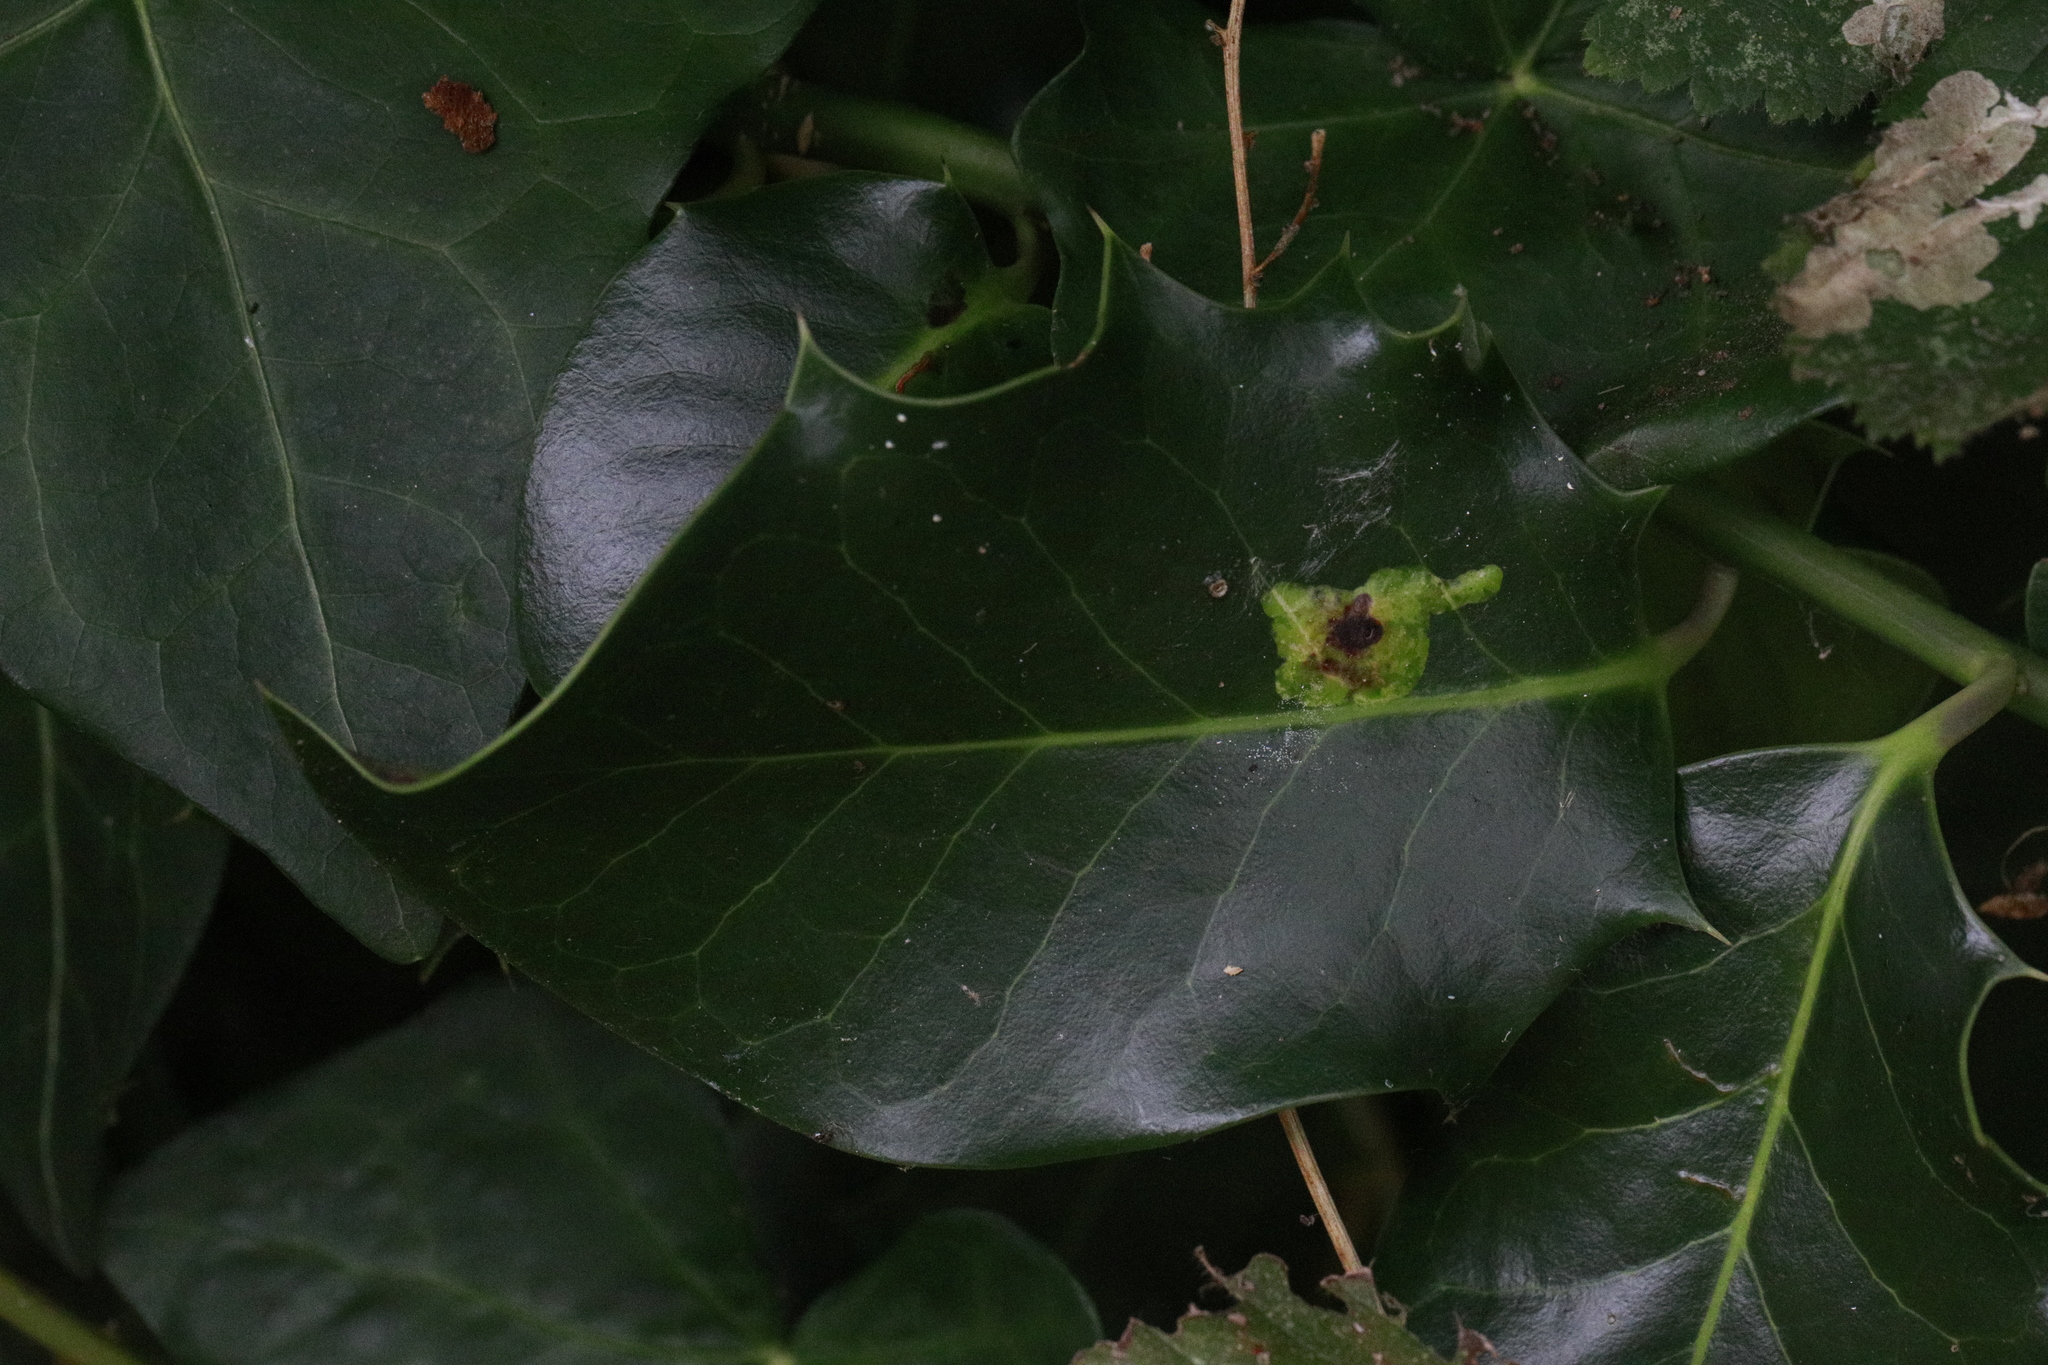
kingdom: Animalia
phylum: Arthropoda
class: Insecta
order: Diptera
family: Agromyzidae
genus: Phytomyza
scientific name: Phytomyza ilicis
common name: Holly leafminer
